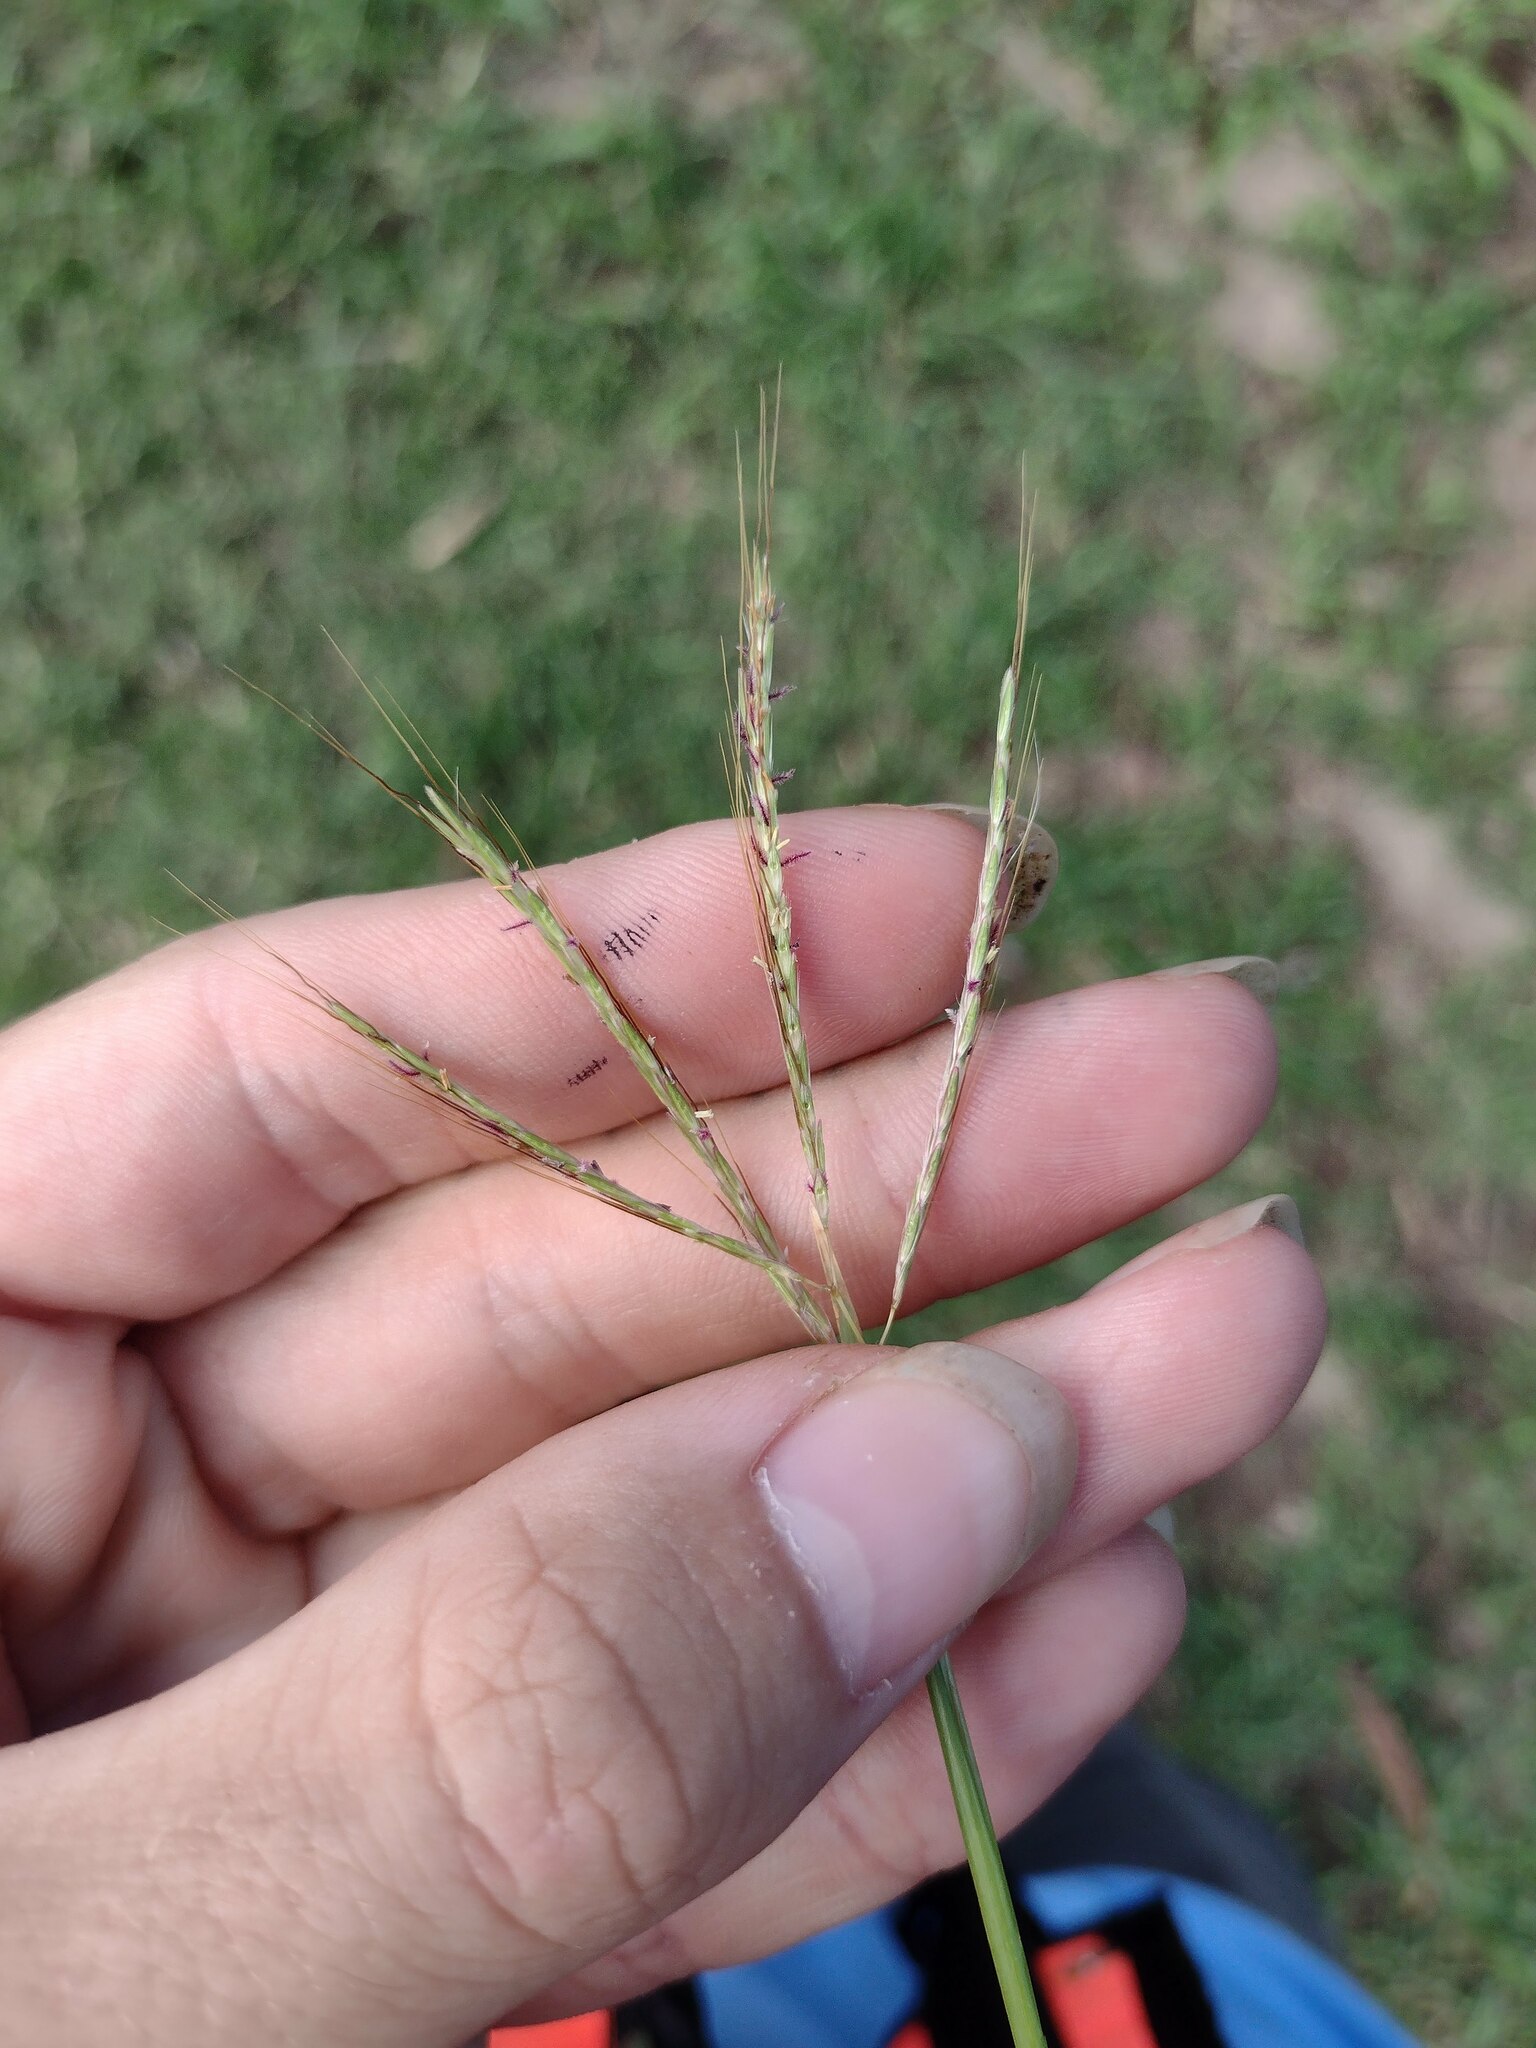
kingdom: Plantae
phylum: Tracheophyta
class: Liliopsida
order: Poales
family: Poaceae
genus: Bothriochloa
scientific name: Bothriochloa pertusa
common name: Pitted beardgrass
